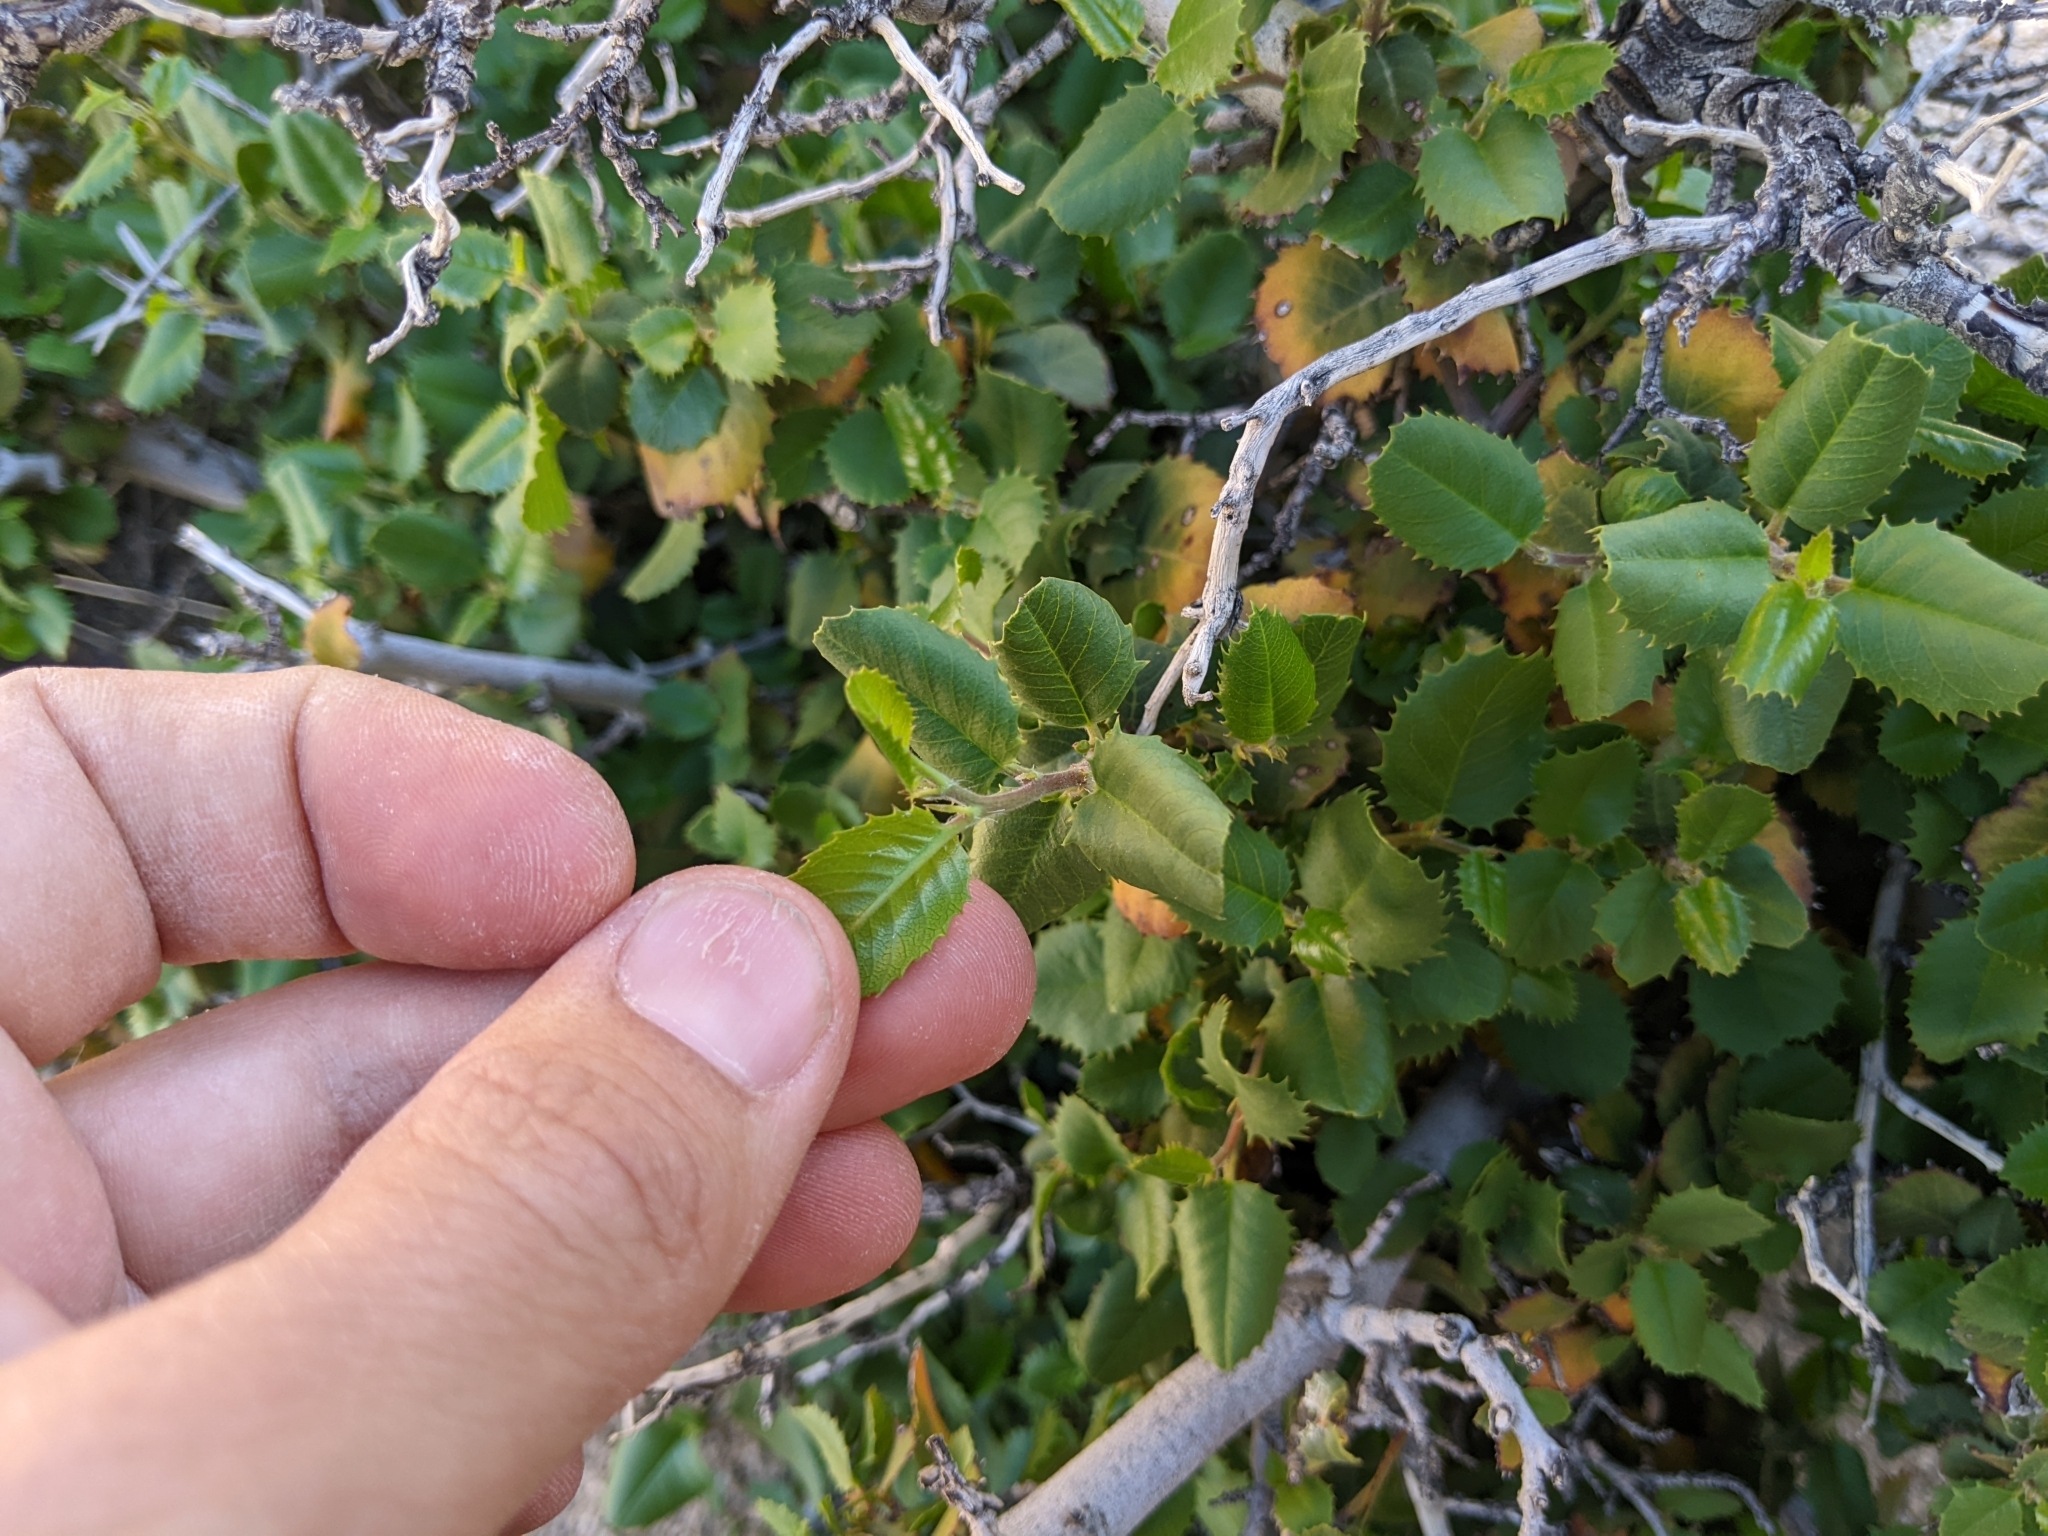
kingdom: Plantae
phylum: Tracheophyta
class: Magnoliopsida
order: Rosales
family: Rhamnaceae
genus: Endotropis
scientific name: Endotropis crocea
